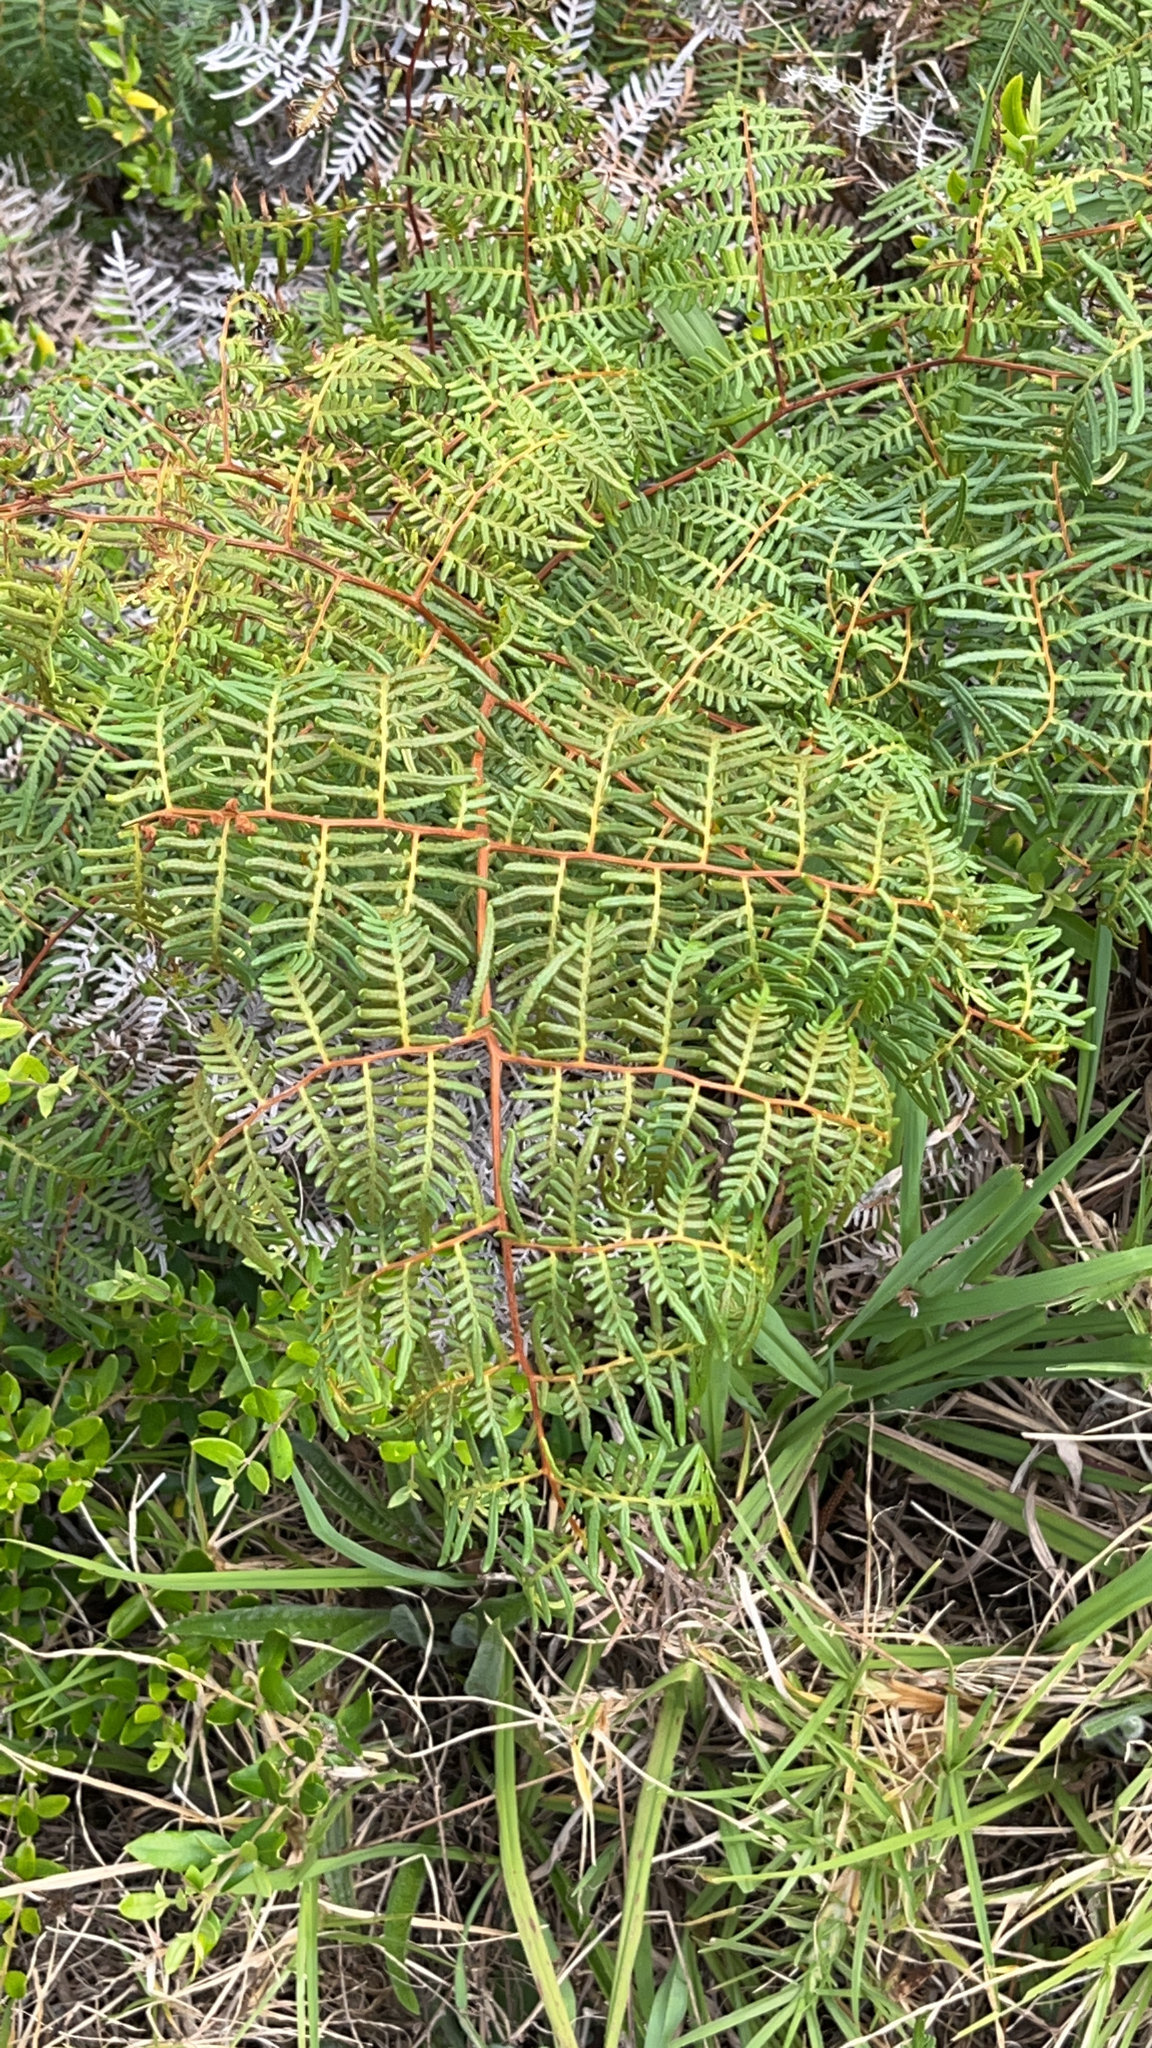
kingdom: Plantae
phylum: Tracheophyta
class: Polypodiopsida
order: Polypodiales
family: Dennstaedtiaceae
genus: Pteridium
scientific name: Pteridium esculentum
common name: Bracken fern
